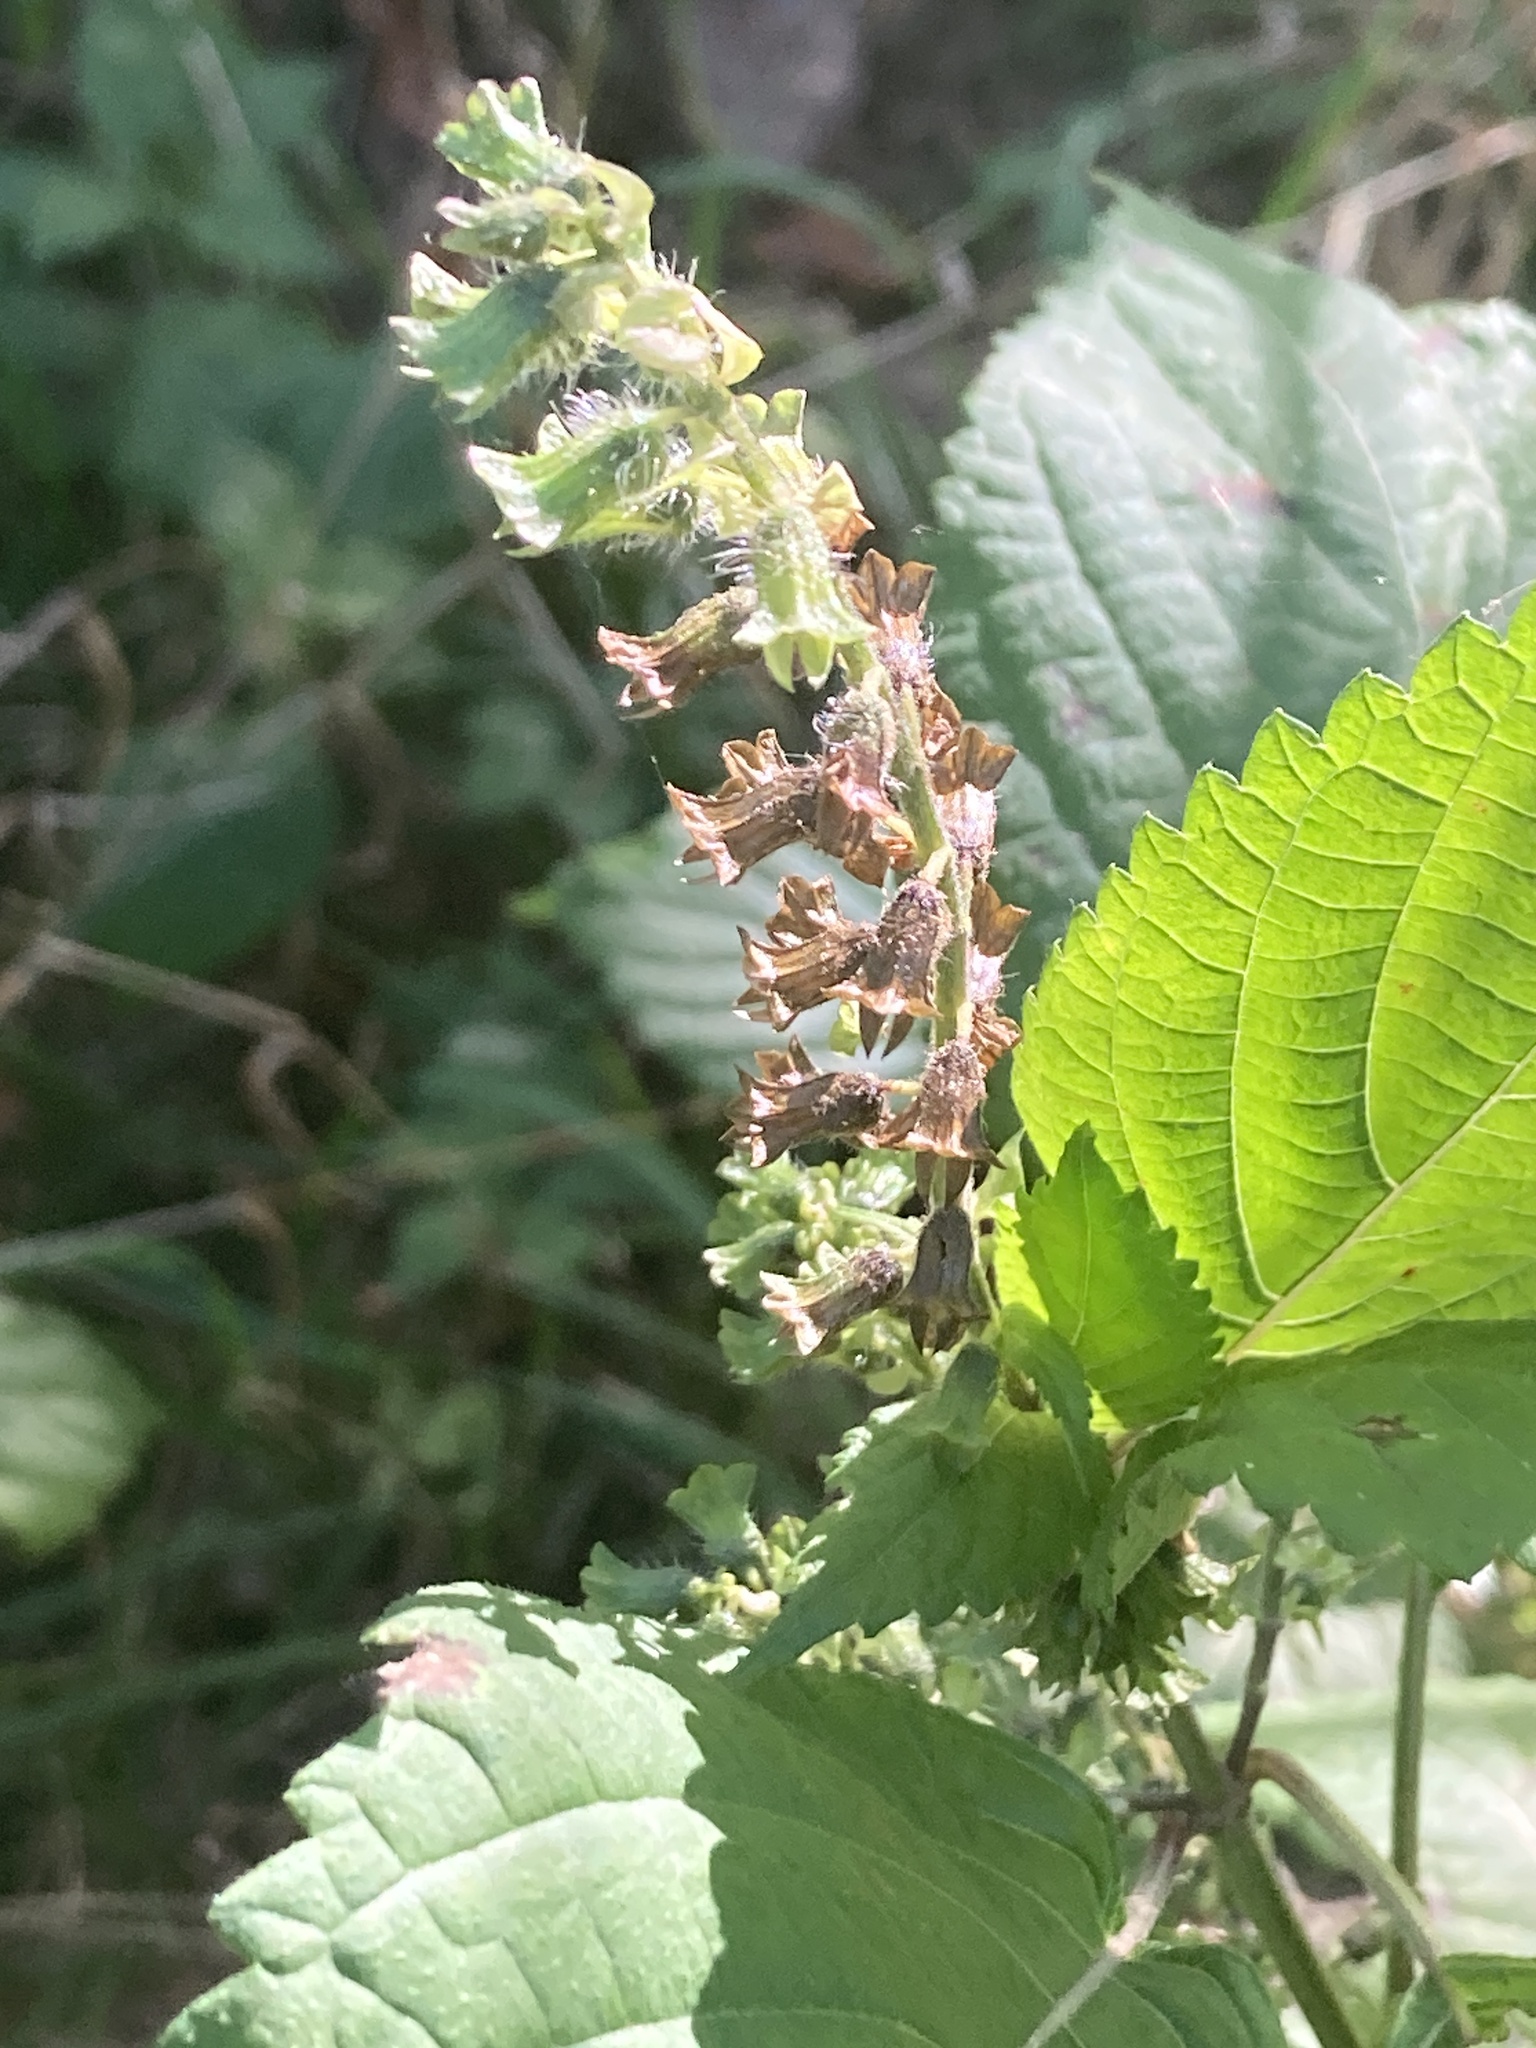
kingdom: Plantae
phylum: Tracheophyta
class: Magnoliopsida
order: Lamiales
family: Lamiaceae
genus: Perilla
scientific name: Perilla frutescens
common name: Perilla
